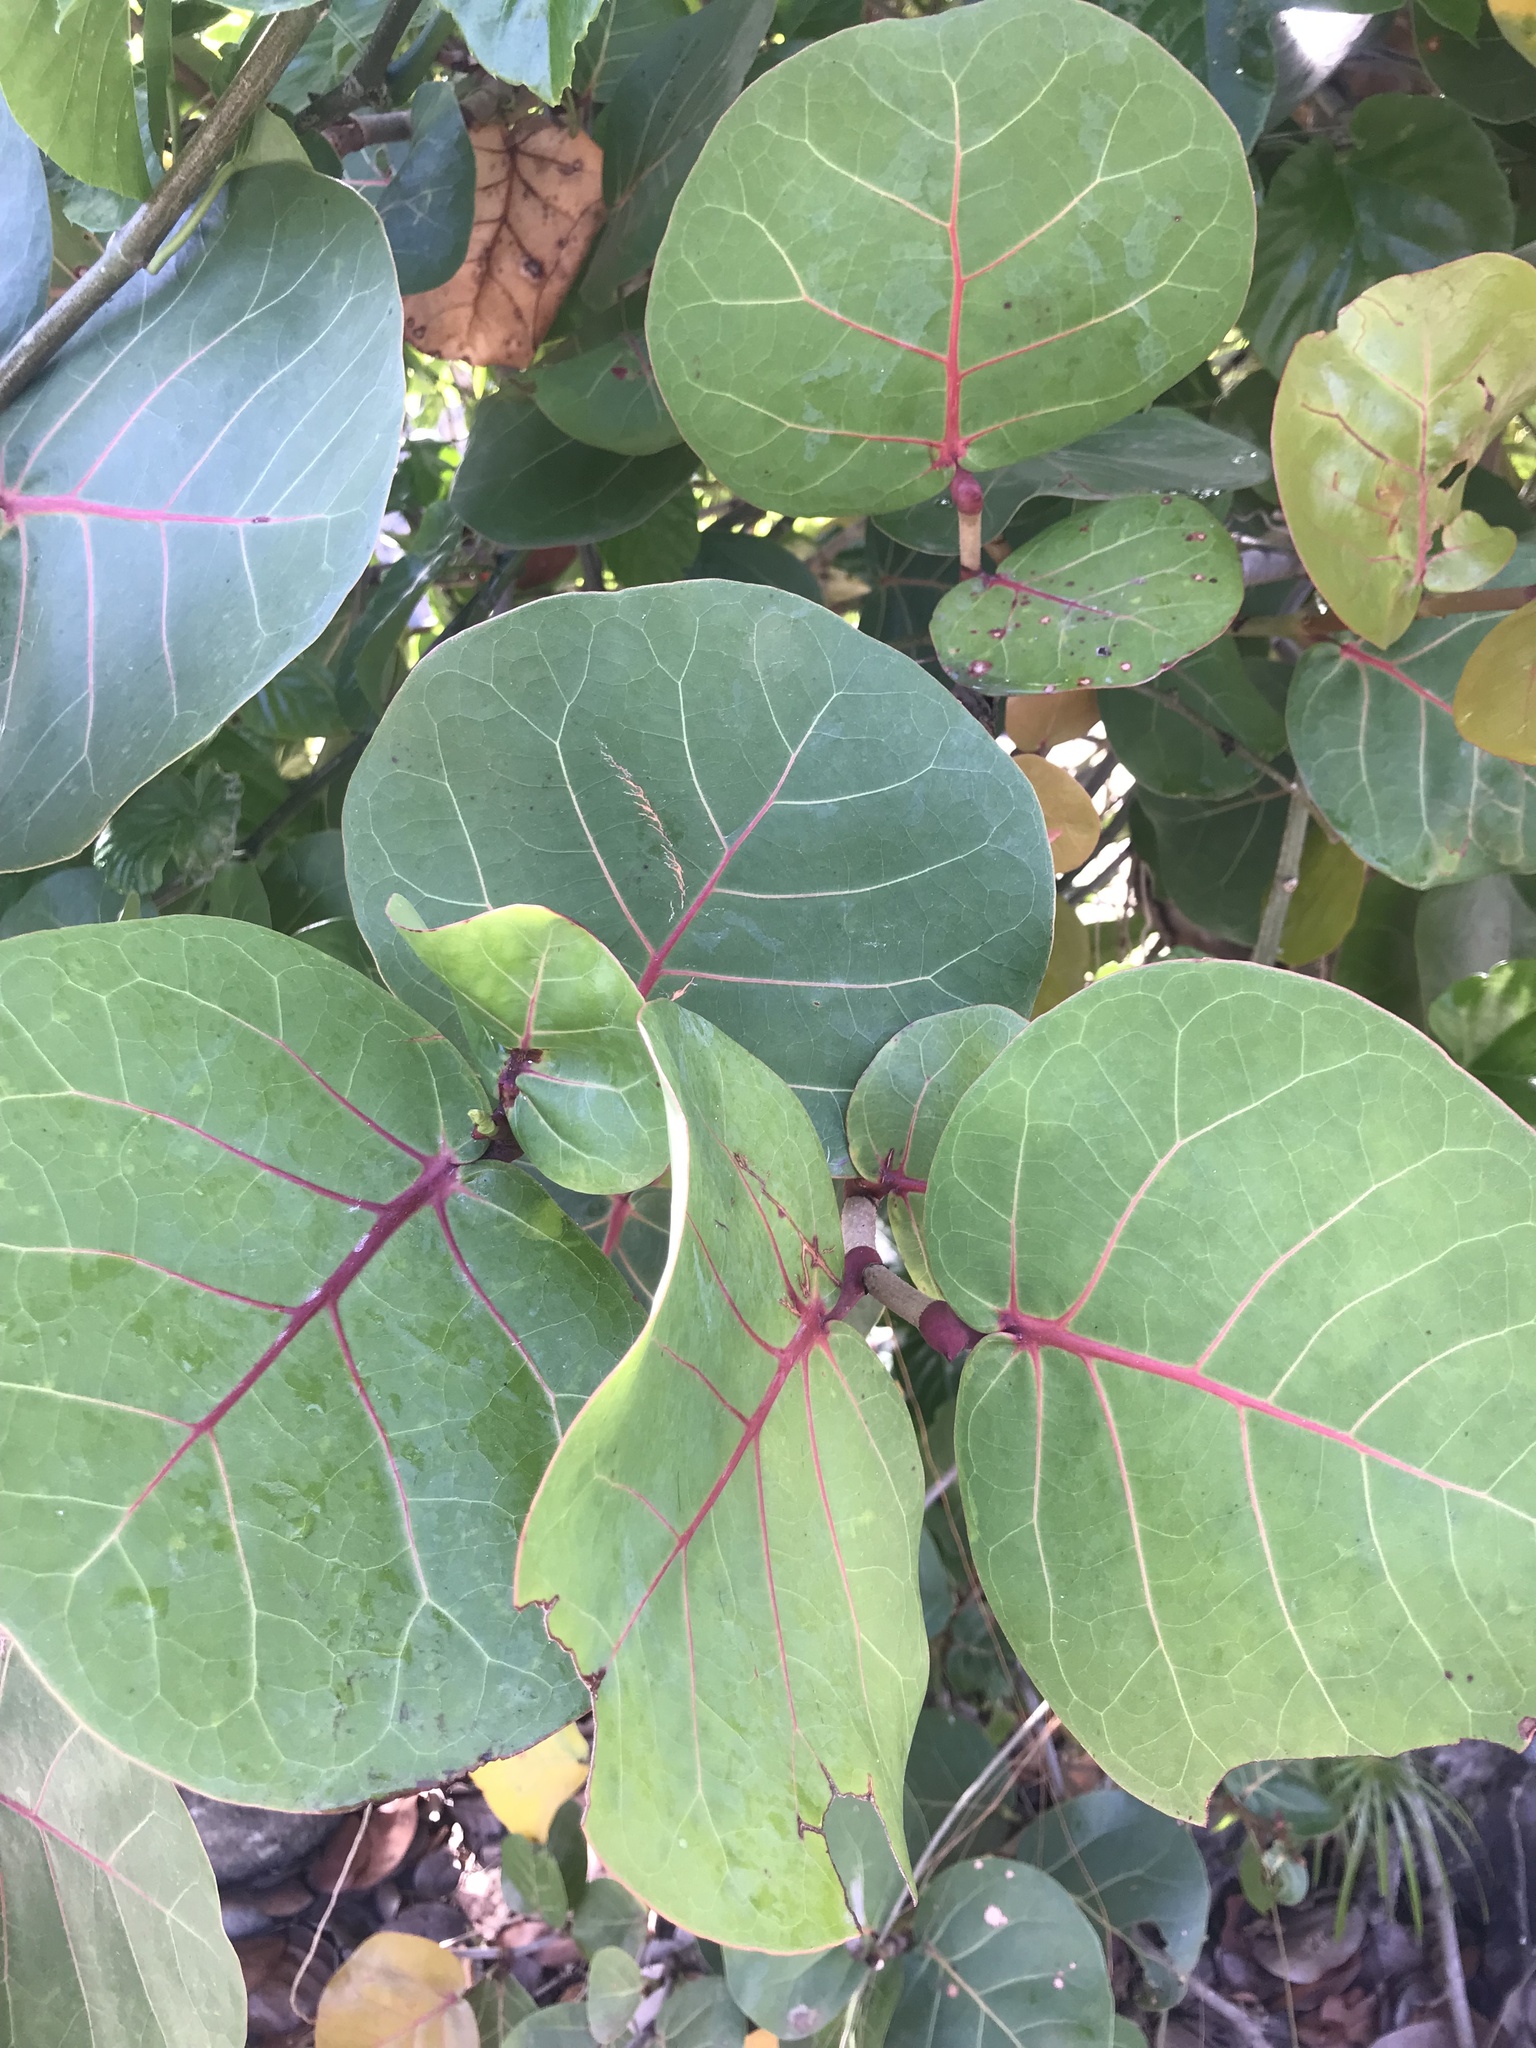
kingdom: Plantae
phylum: Tracheophyta
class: Magnoliopsida
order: Caryophyllales
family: Polygonaceae
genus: Coccoloba
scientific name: Coccoloba uvifera
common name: Seagrape
